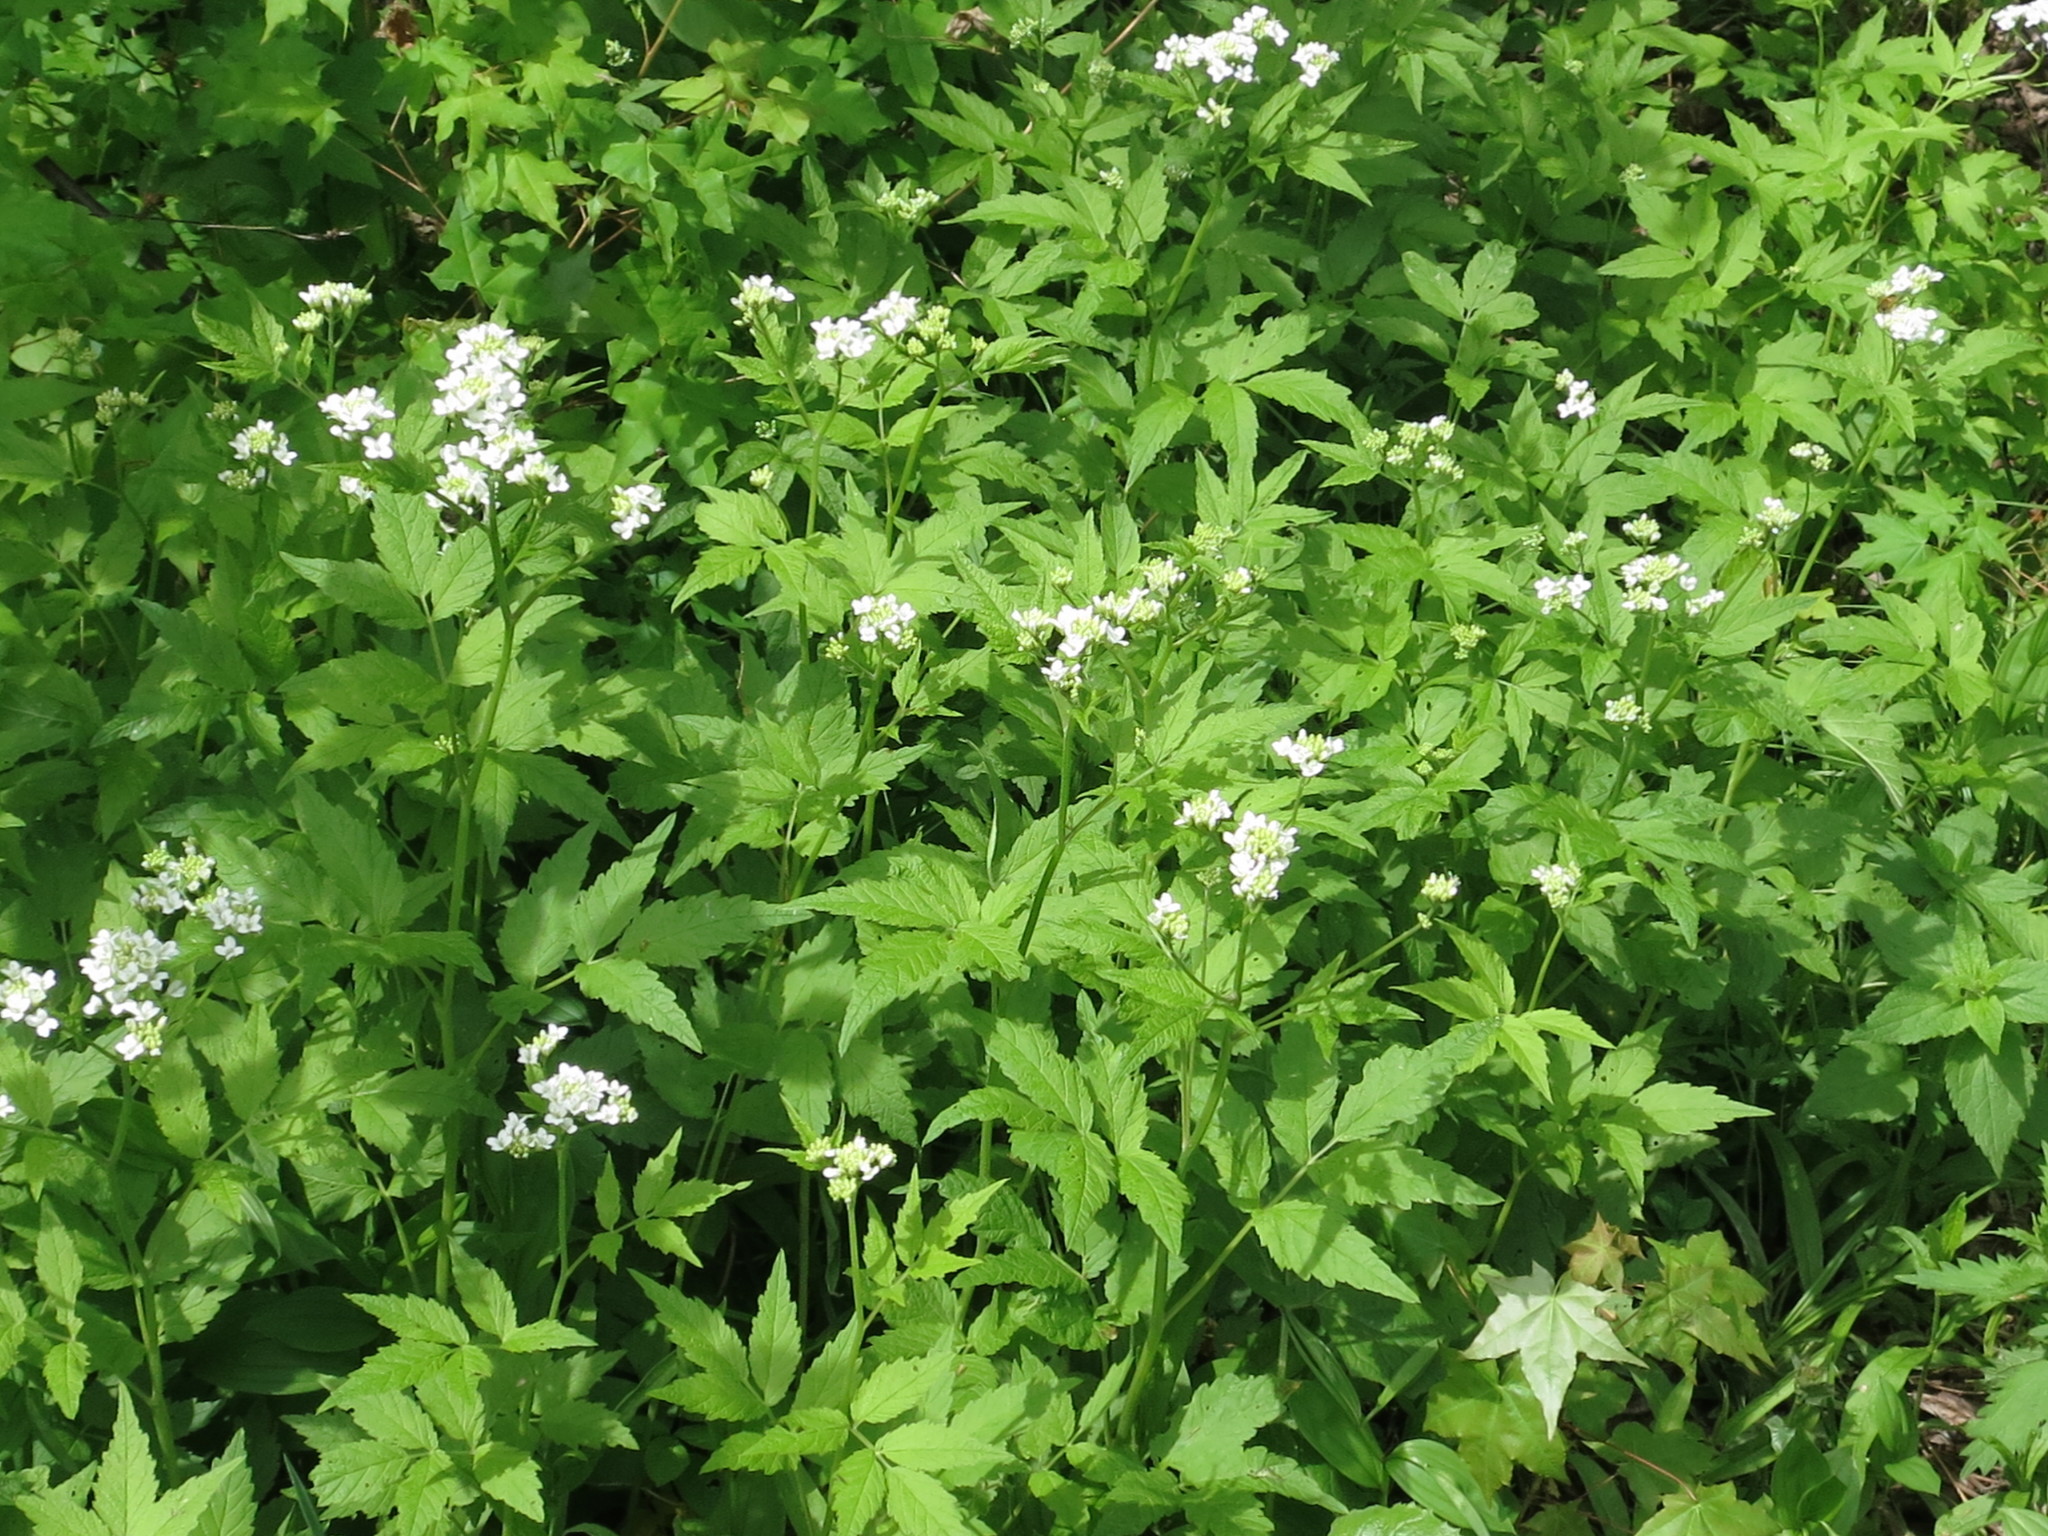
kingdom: Plantae
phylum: Tracheophyta
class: Magnoliopsida
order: Brassicales
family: Brassicaceae
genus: Cardamine
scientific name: Cardamine leucantha
